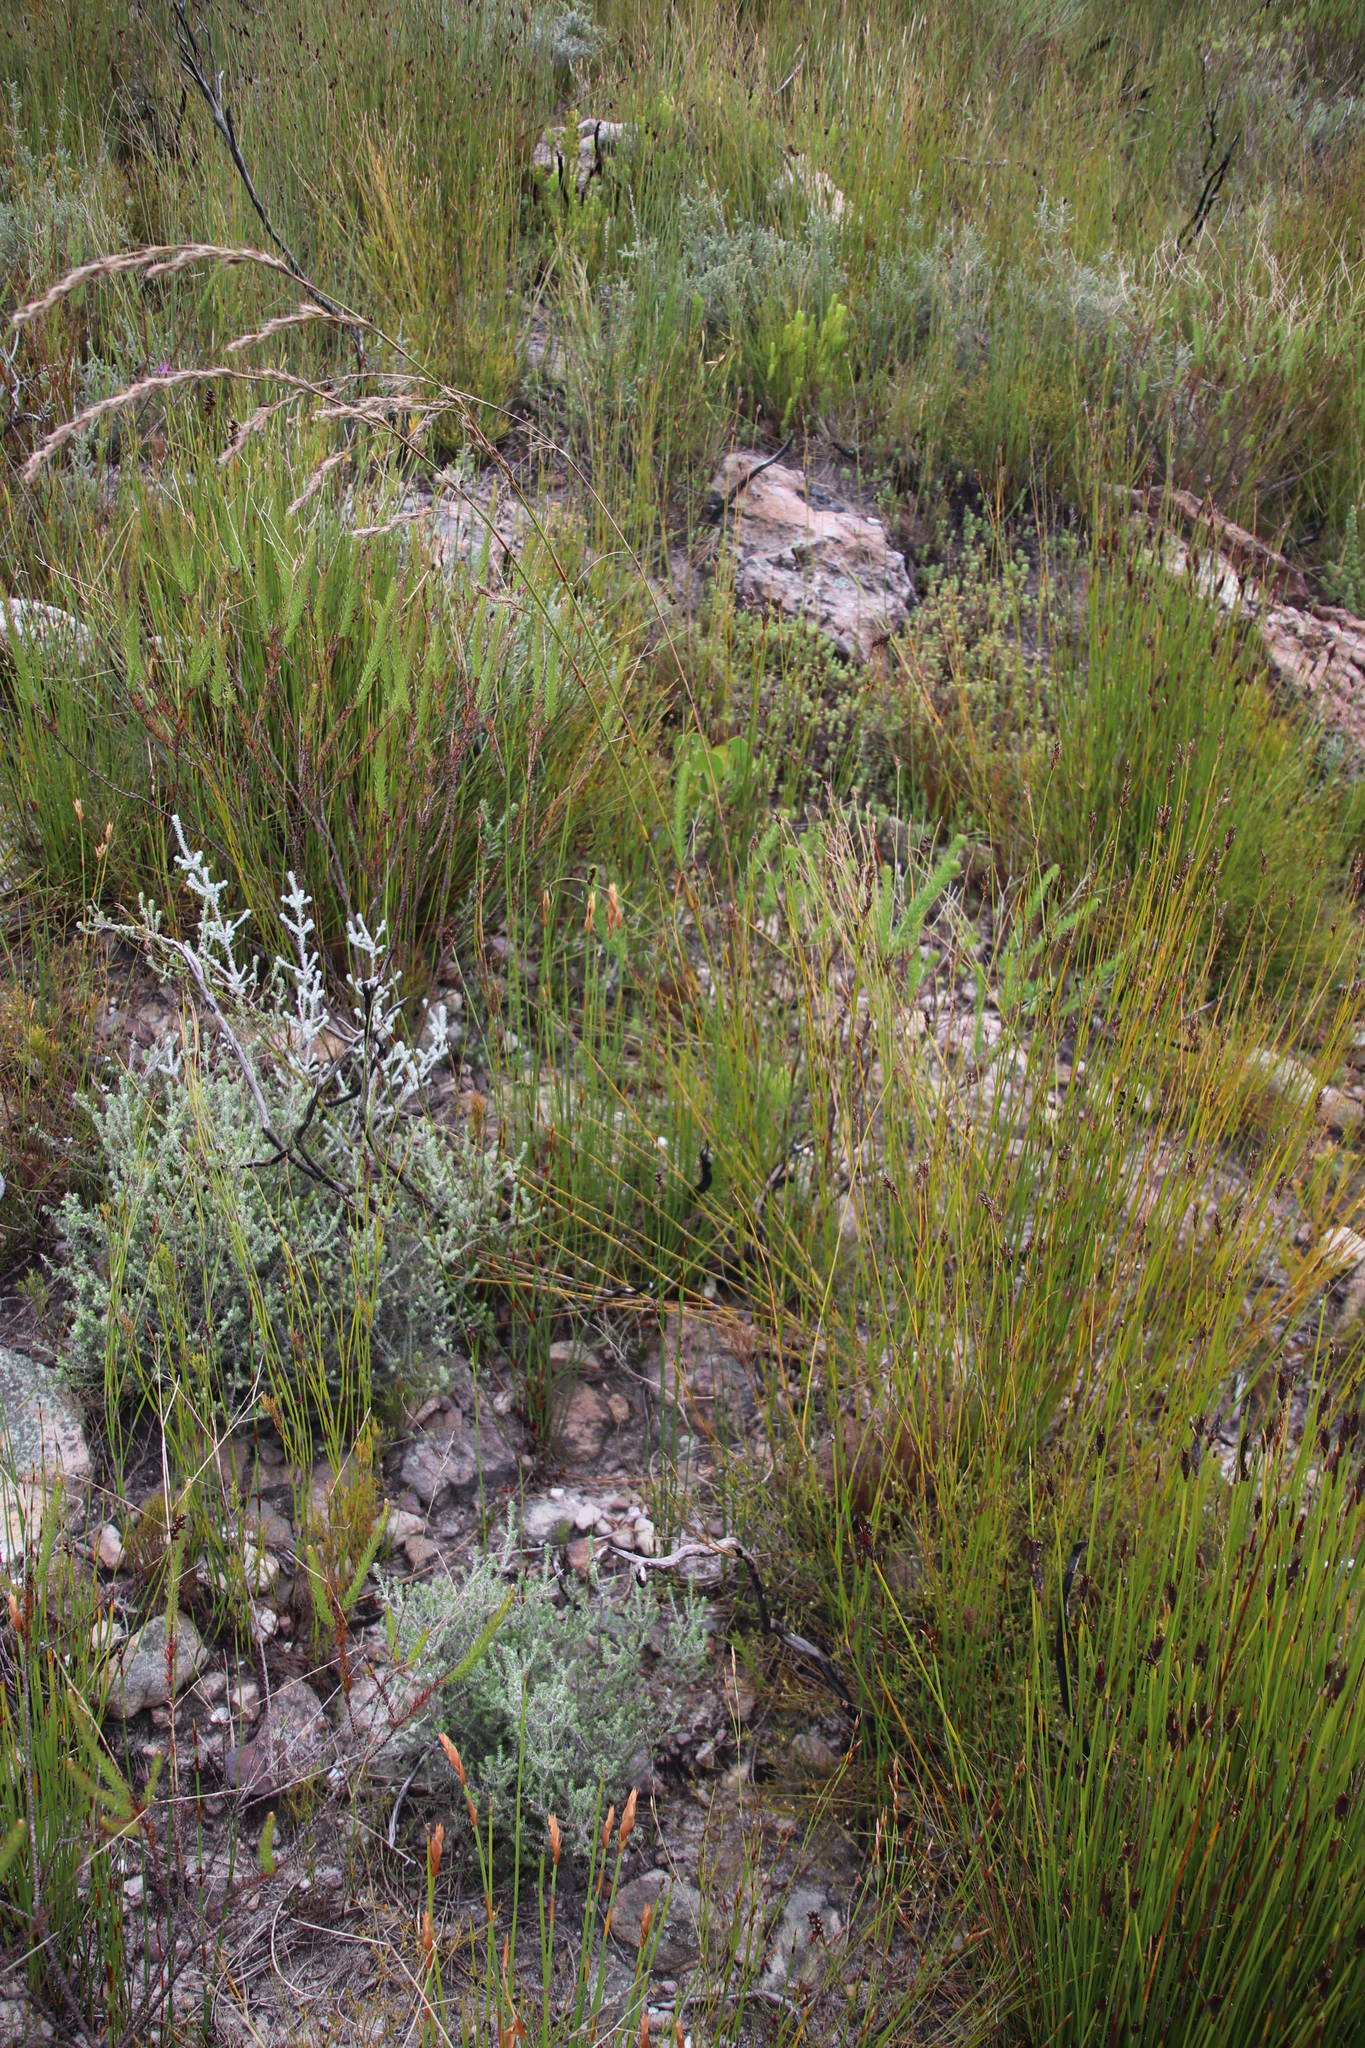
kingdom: Plantae
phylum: Tracheophyta
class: Liliopsida
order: Poales
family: Cyperaceae
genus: Tetraria
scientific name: Tetraria involucrata
